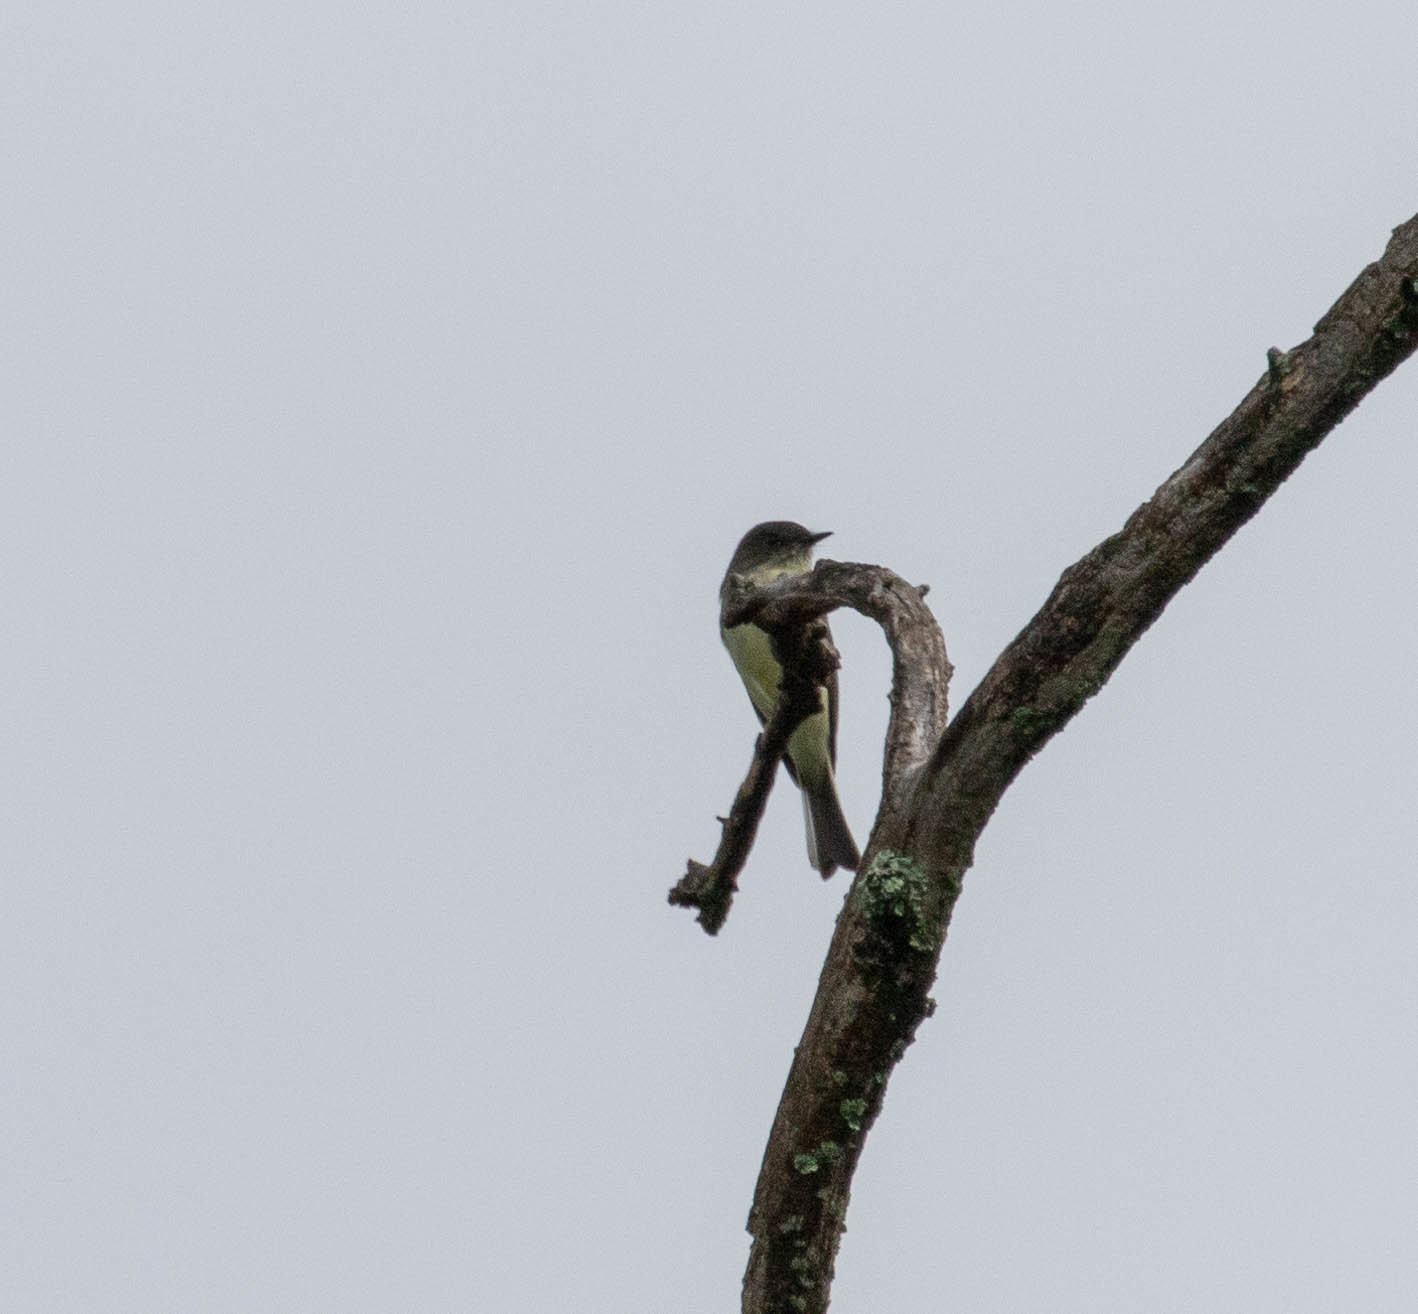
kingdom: Animalia
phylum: Chordata
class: Aves
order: Passeriformes
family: Tyrannidae
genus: Sayornis
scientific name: Sayornis phoebe
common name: Eastern phoebe
